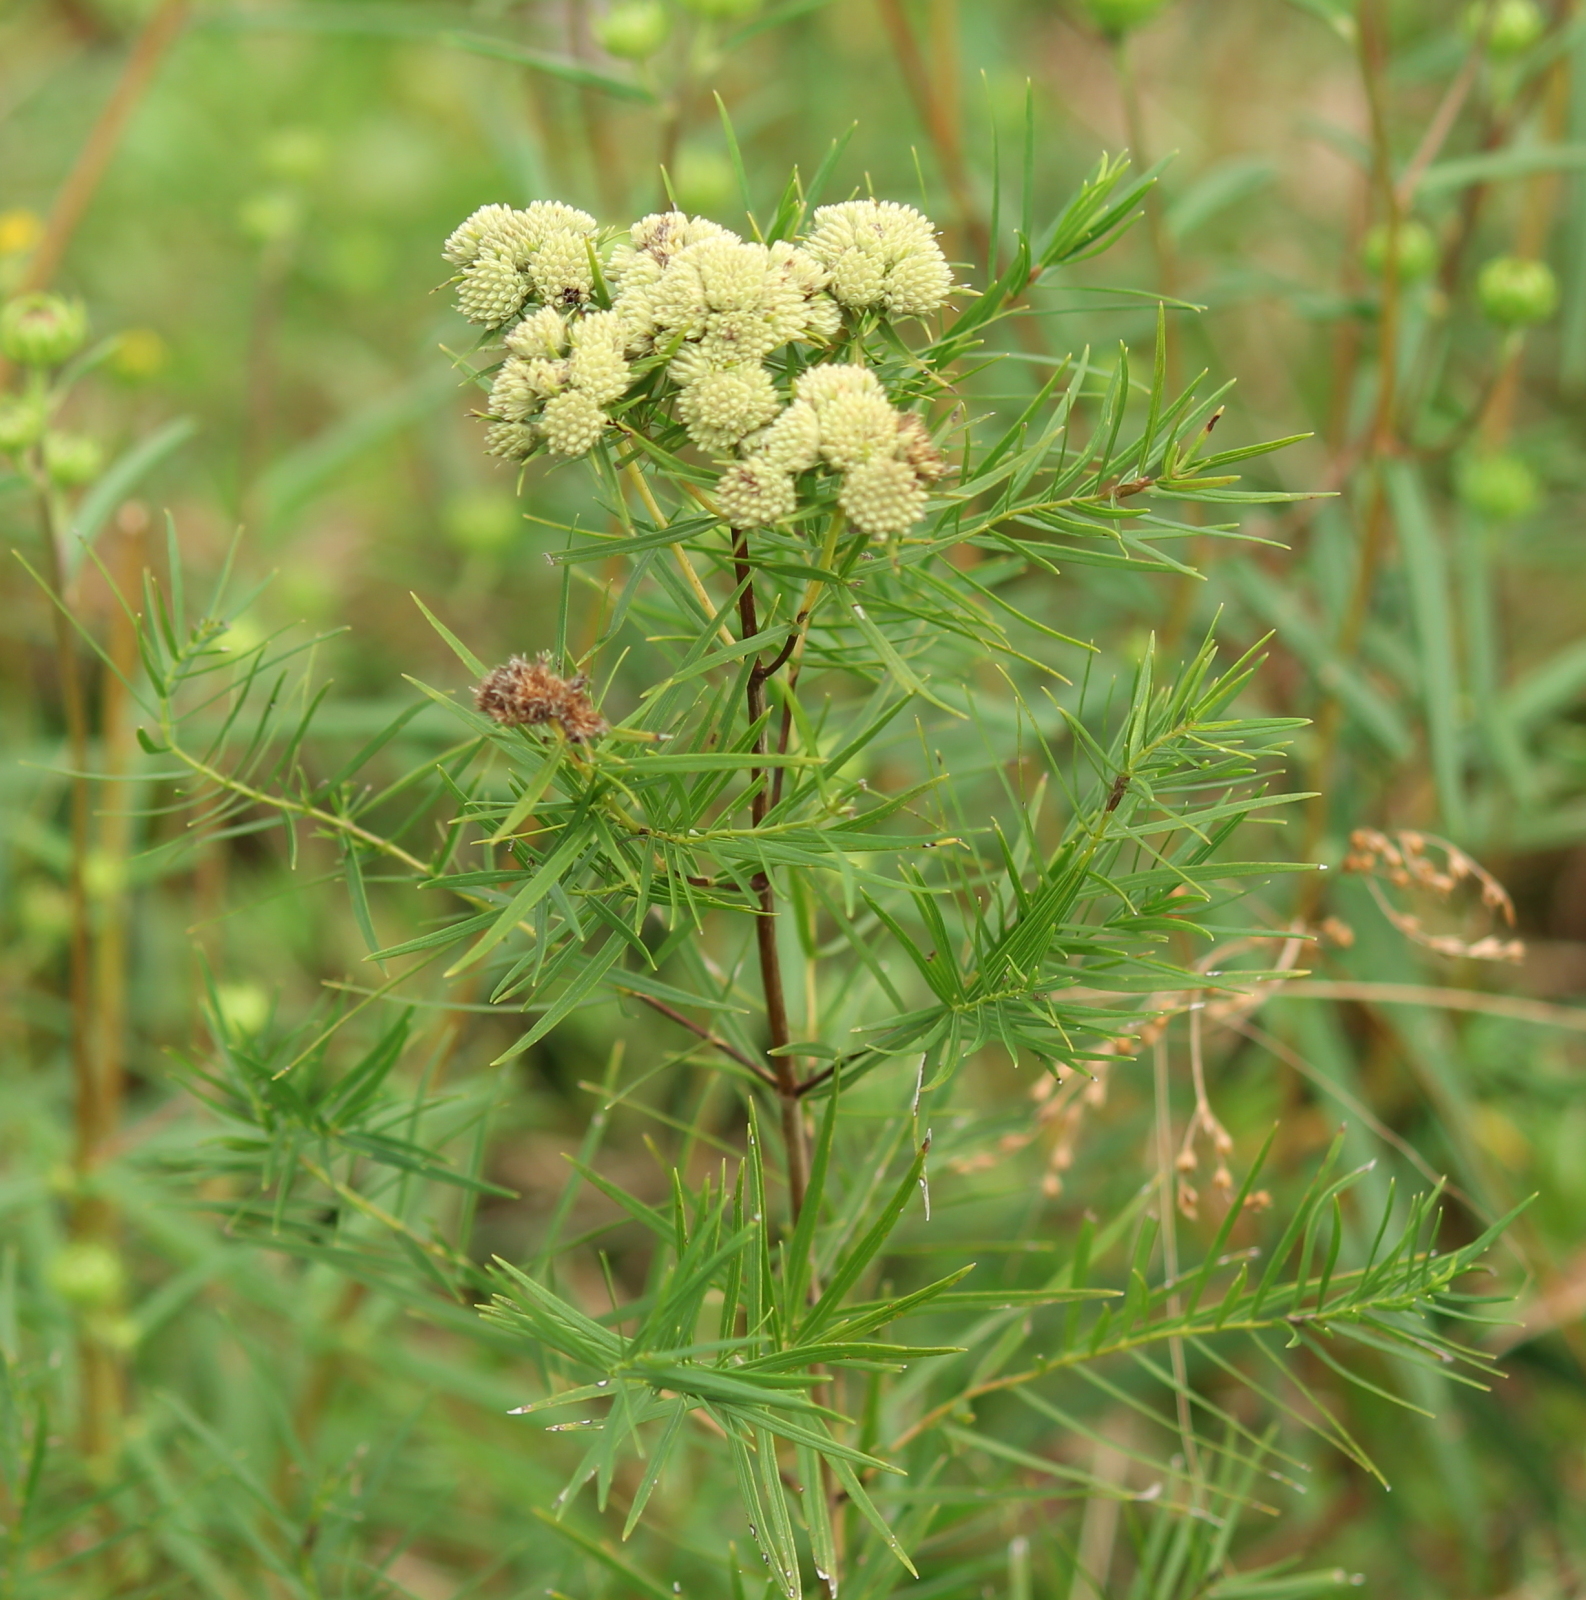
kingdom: Plantae
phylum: Tracheophyta
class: Magnoliopsida
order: Lamiales
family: Lamiaceae
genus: Pycnanthemum
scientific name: Pycnanthemum tenuifolium
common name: Narrow-leaf mountain-mint
